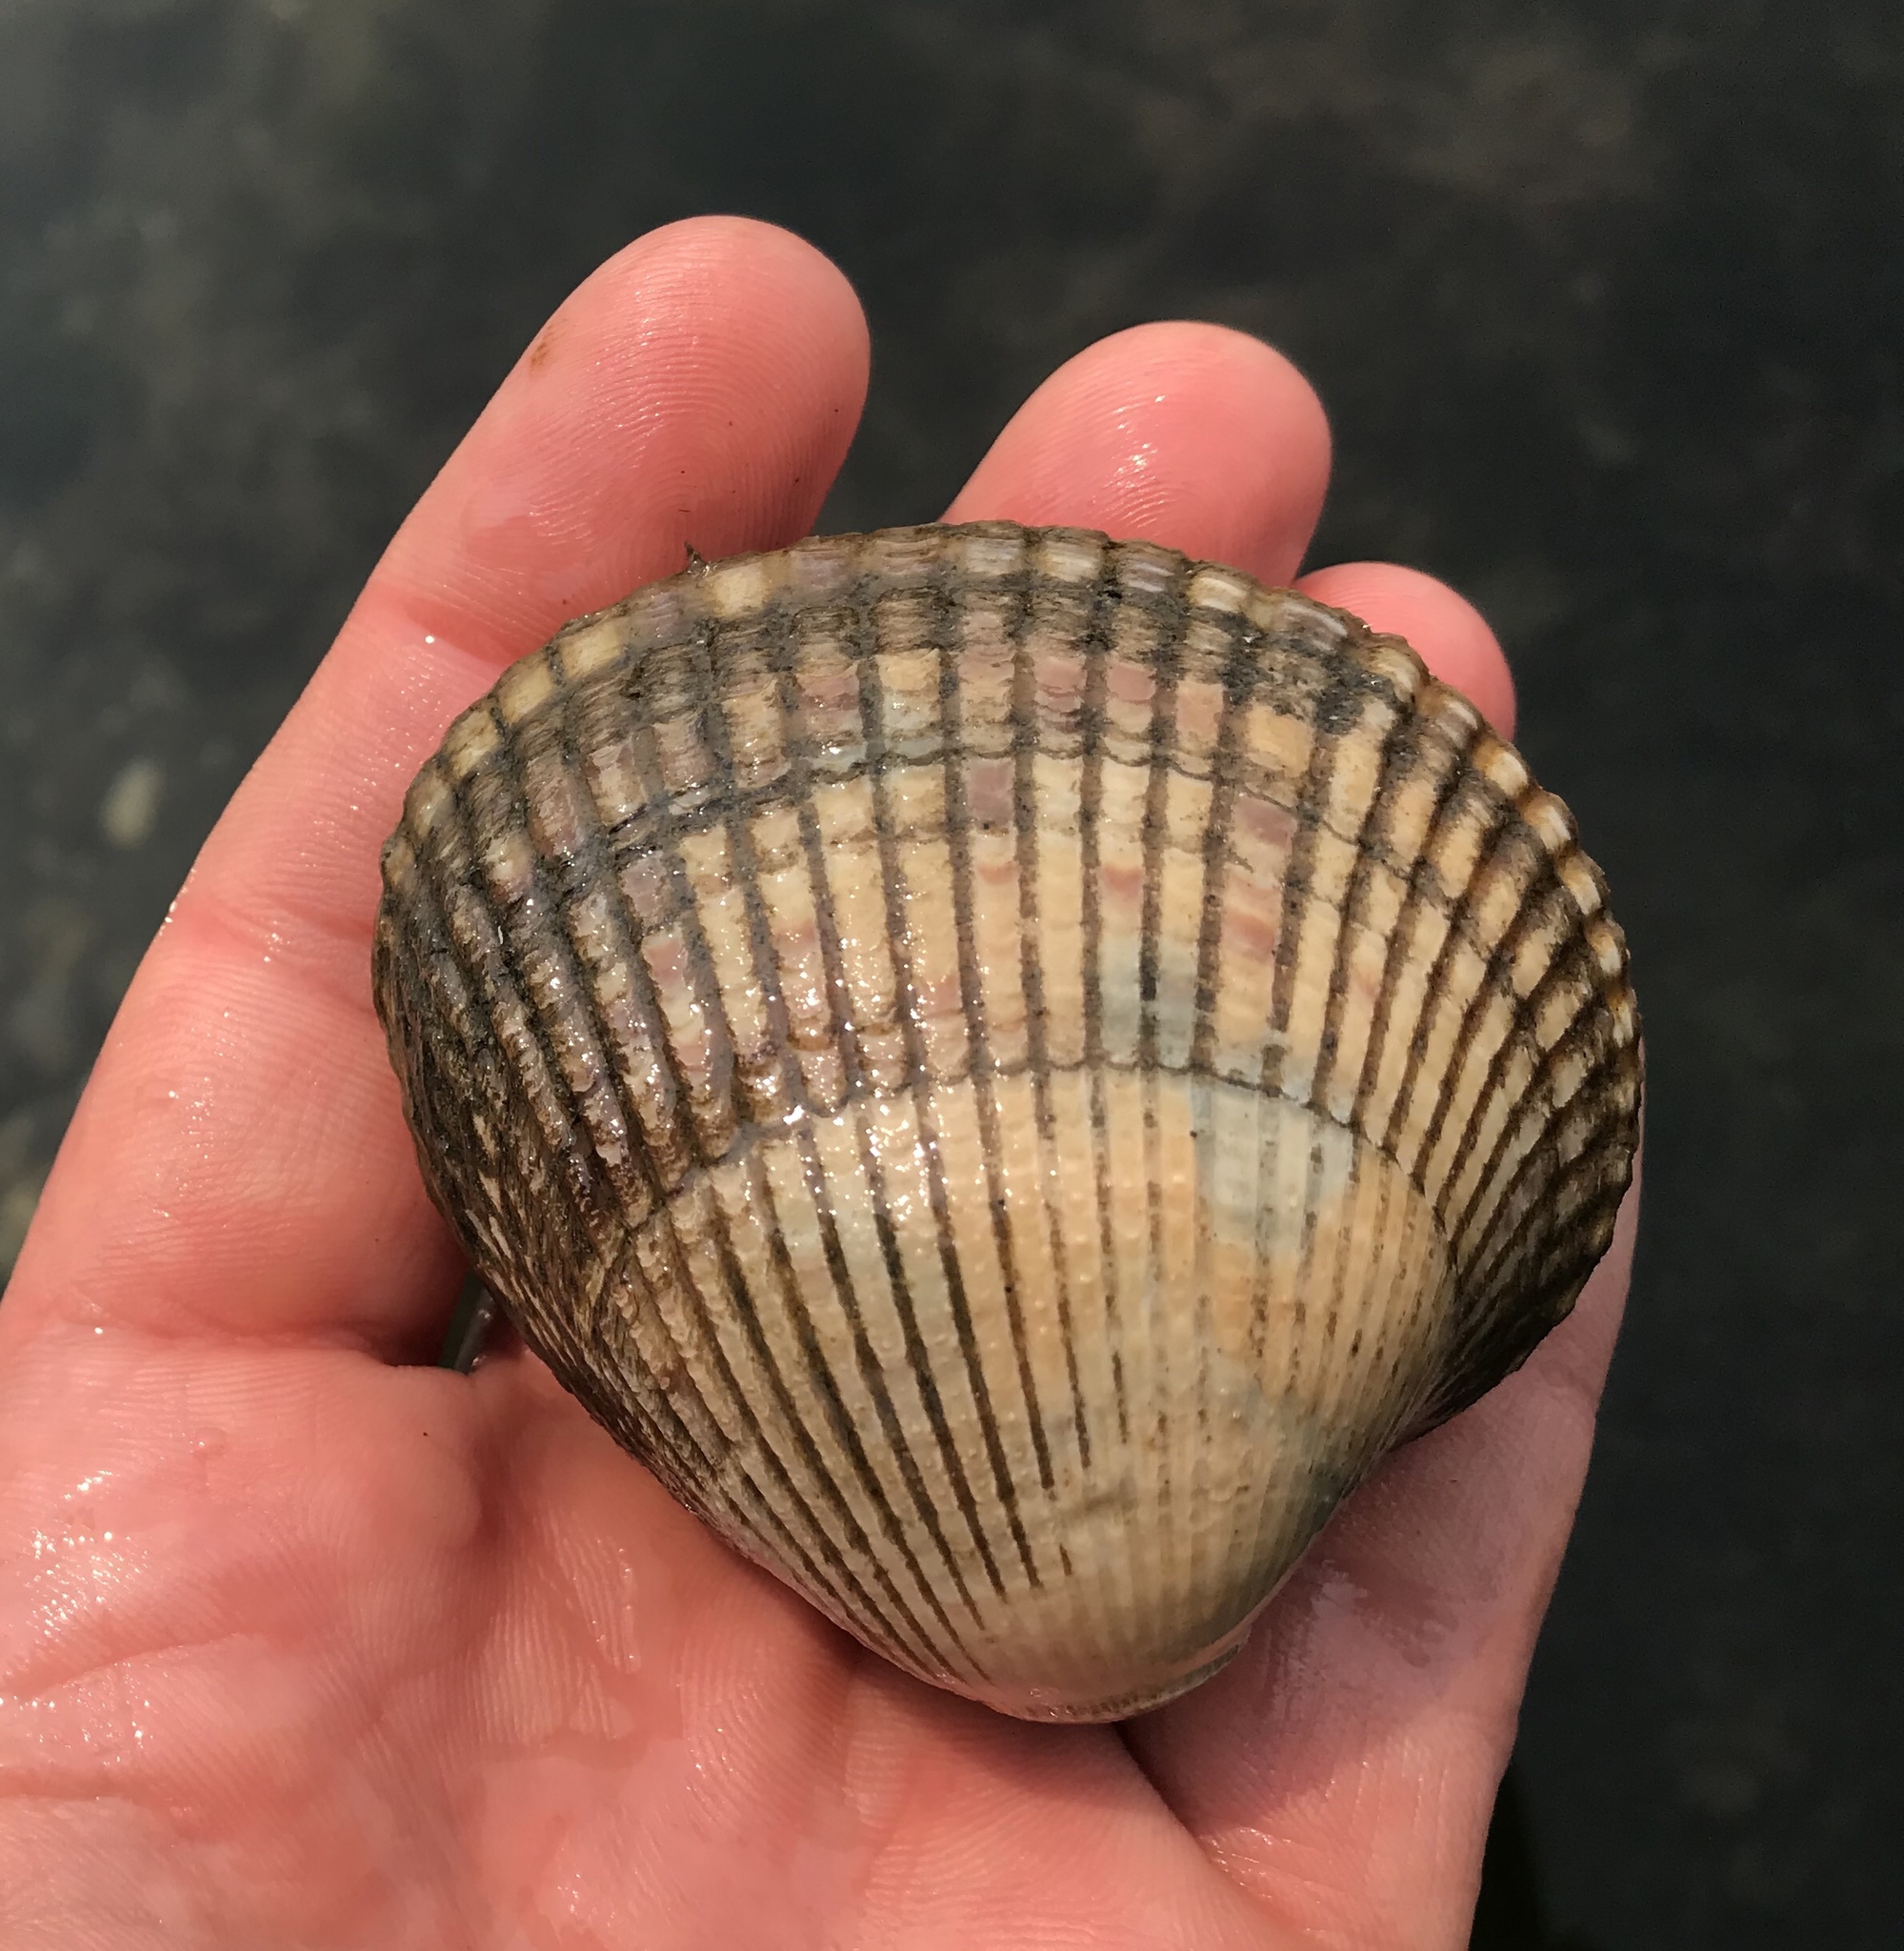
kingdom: Animalia
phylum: Mollusca
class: Bivalvia
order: Cardiida
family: Cardiidae
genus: Clinocardium
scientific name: Clinocardium nuttallii
